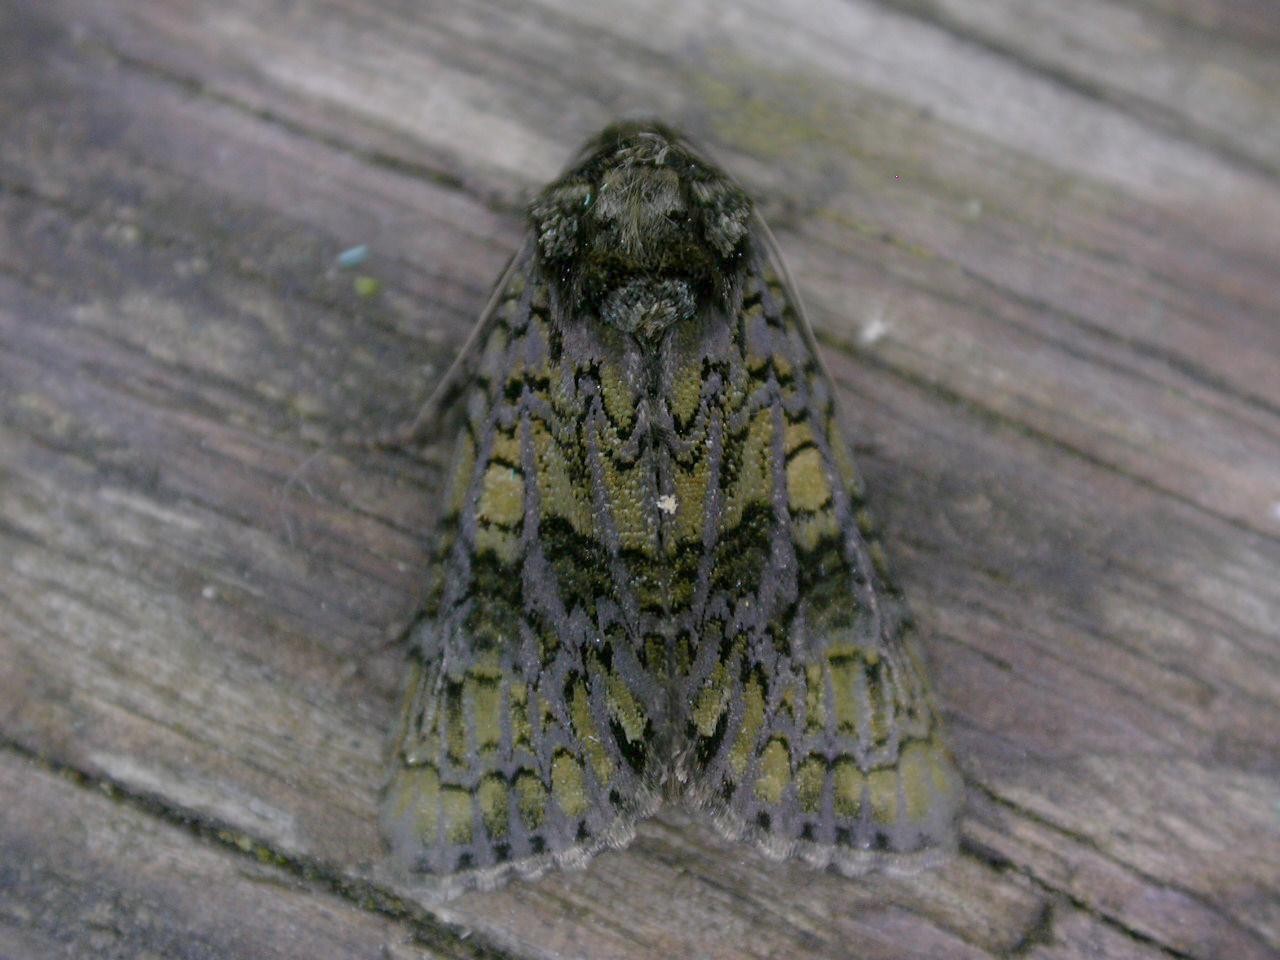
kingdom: Animalia
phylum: Arthropoda
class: Insecta
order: Lepidoptera
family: Noctuidae
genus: Craniophora
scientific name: Craniophora ligustri
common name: Coronet
